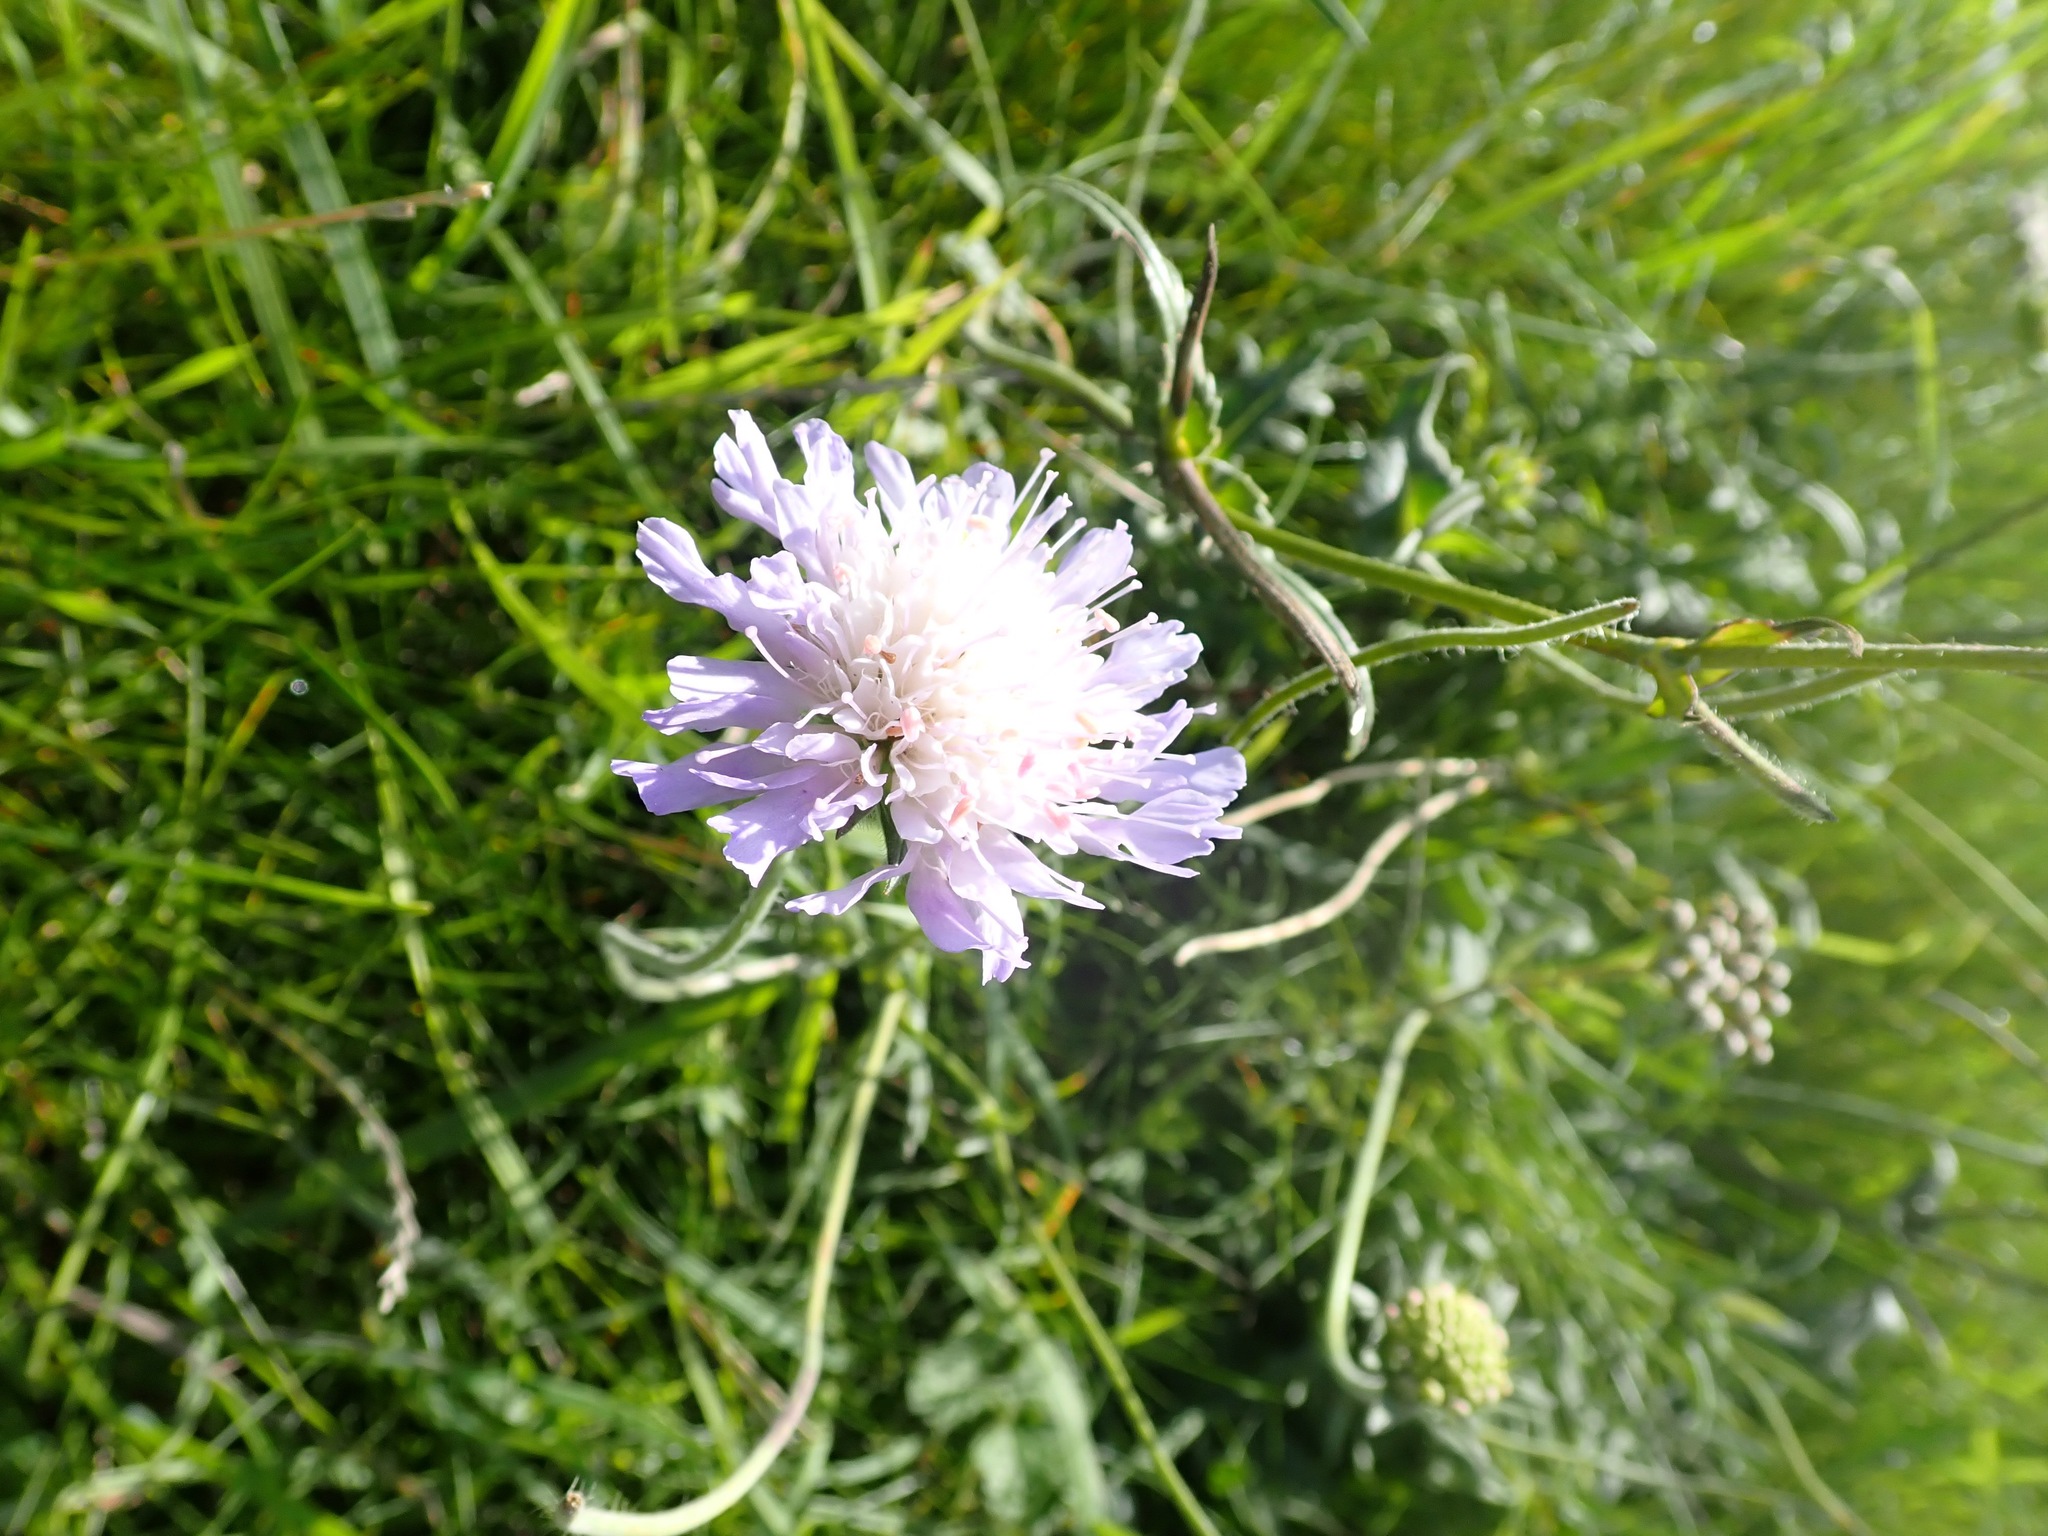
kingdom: Plantae
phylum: Tracheophyta
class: Magnoliopsida
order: Dipsacales
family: Caprifoliaceae
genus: Knautia
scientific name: Knautia arvensis
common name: Field scabiosa
